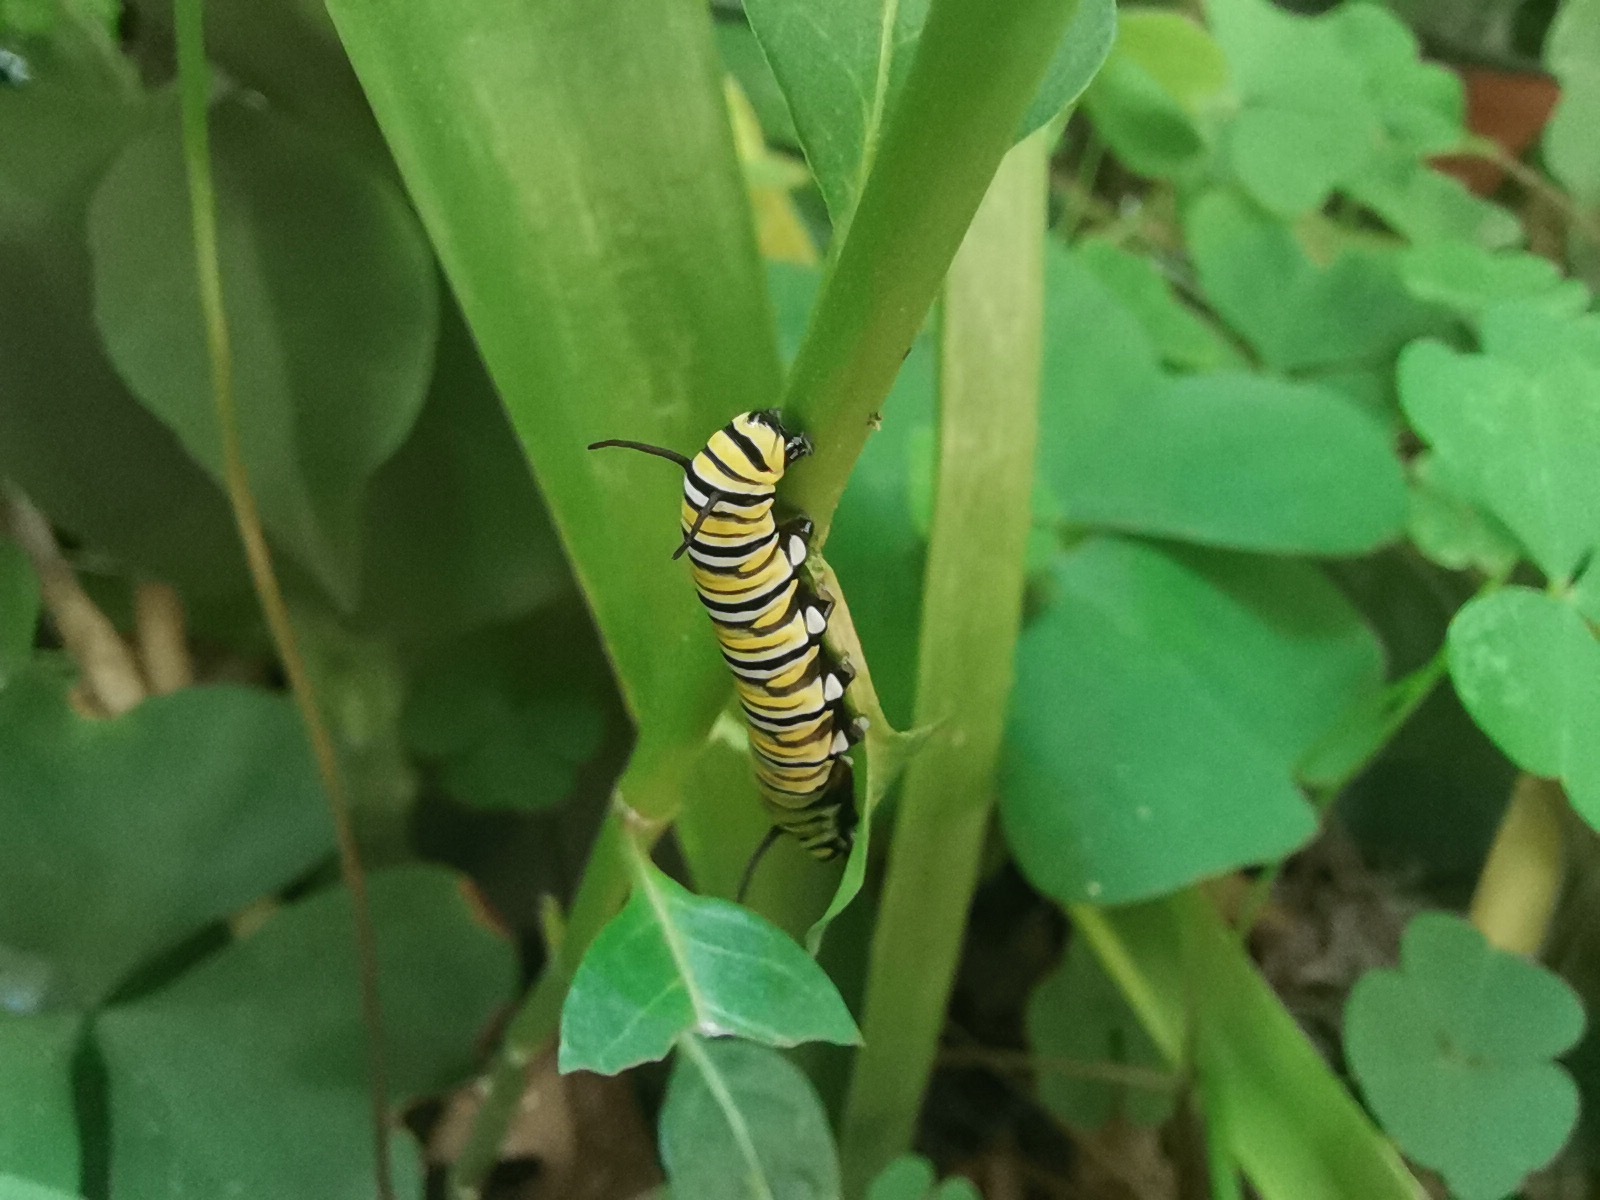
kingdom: Animalia
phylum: Arthropoda
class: Insecta
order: Lepidoptera
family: Nymphalidae
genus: Danaus
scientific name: Danaus plexippus
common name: Monarch
